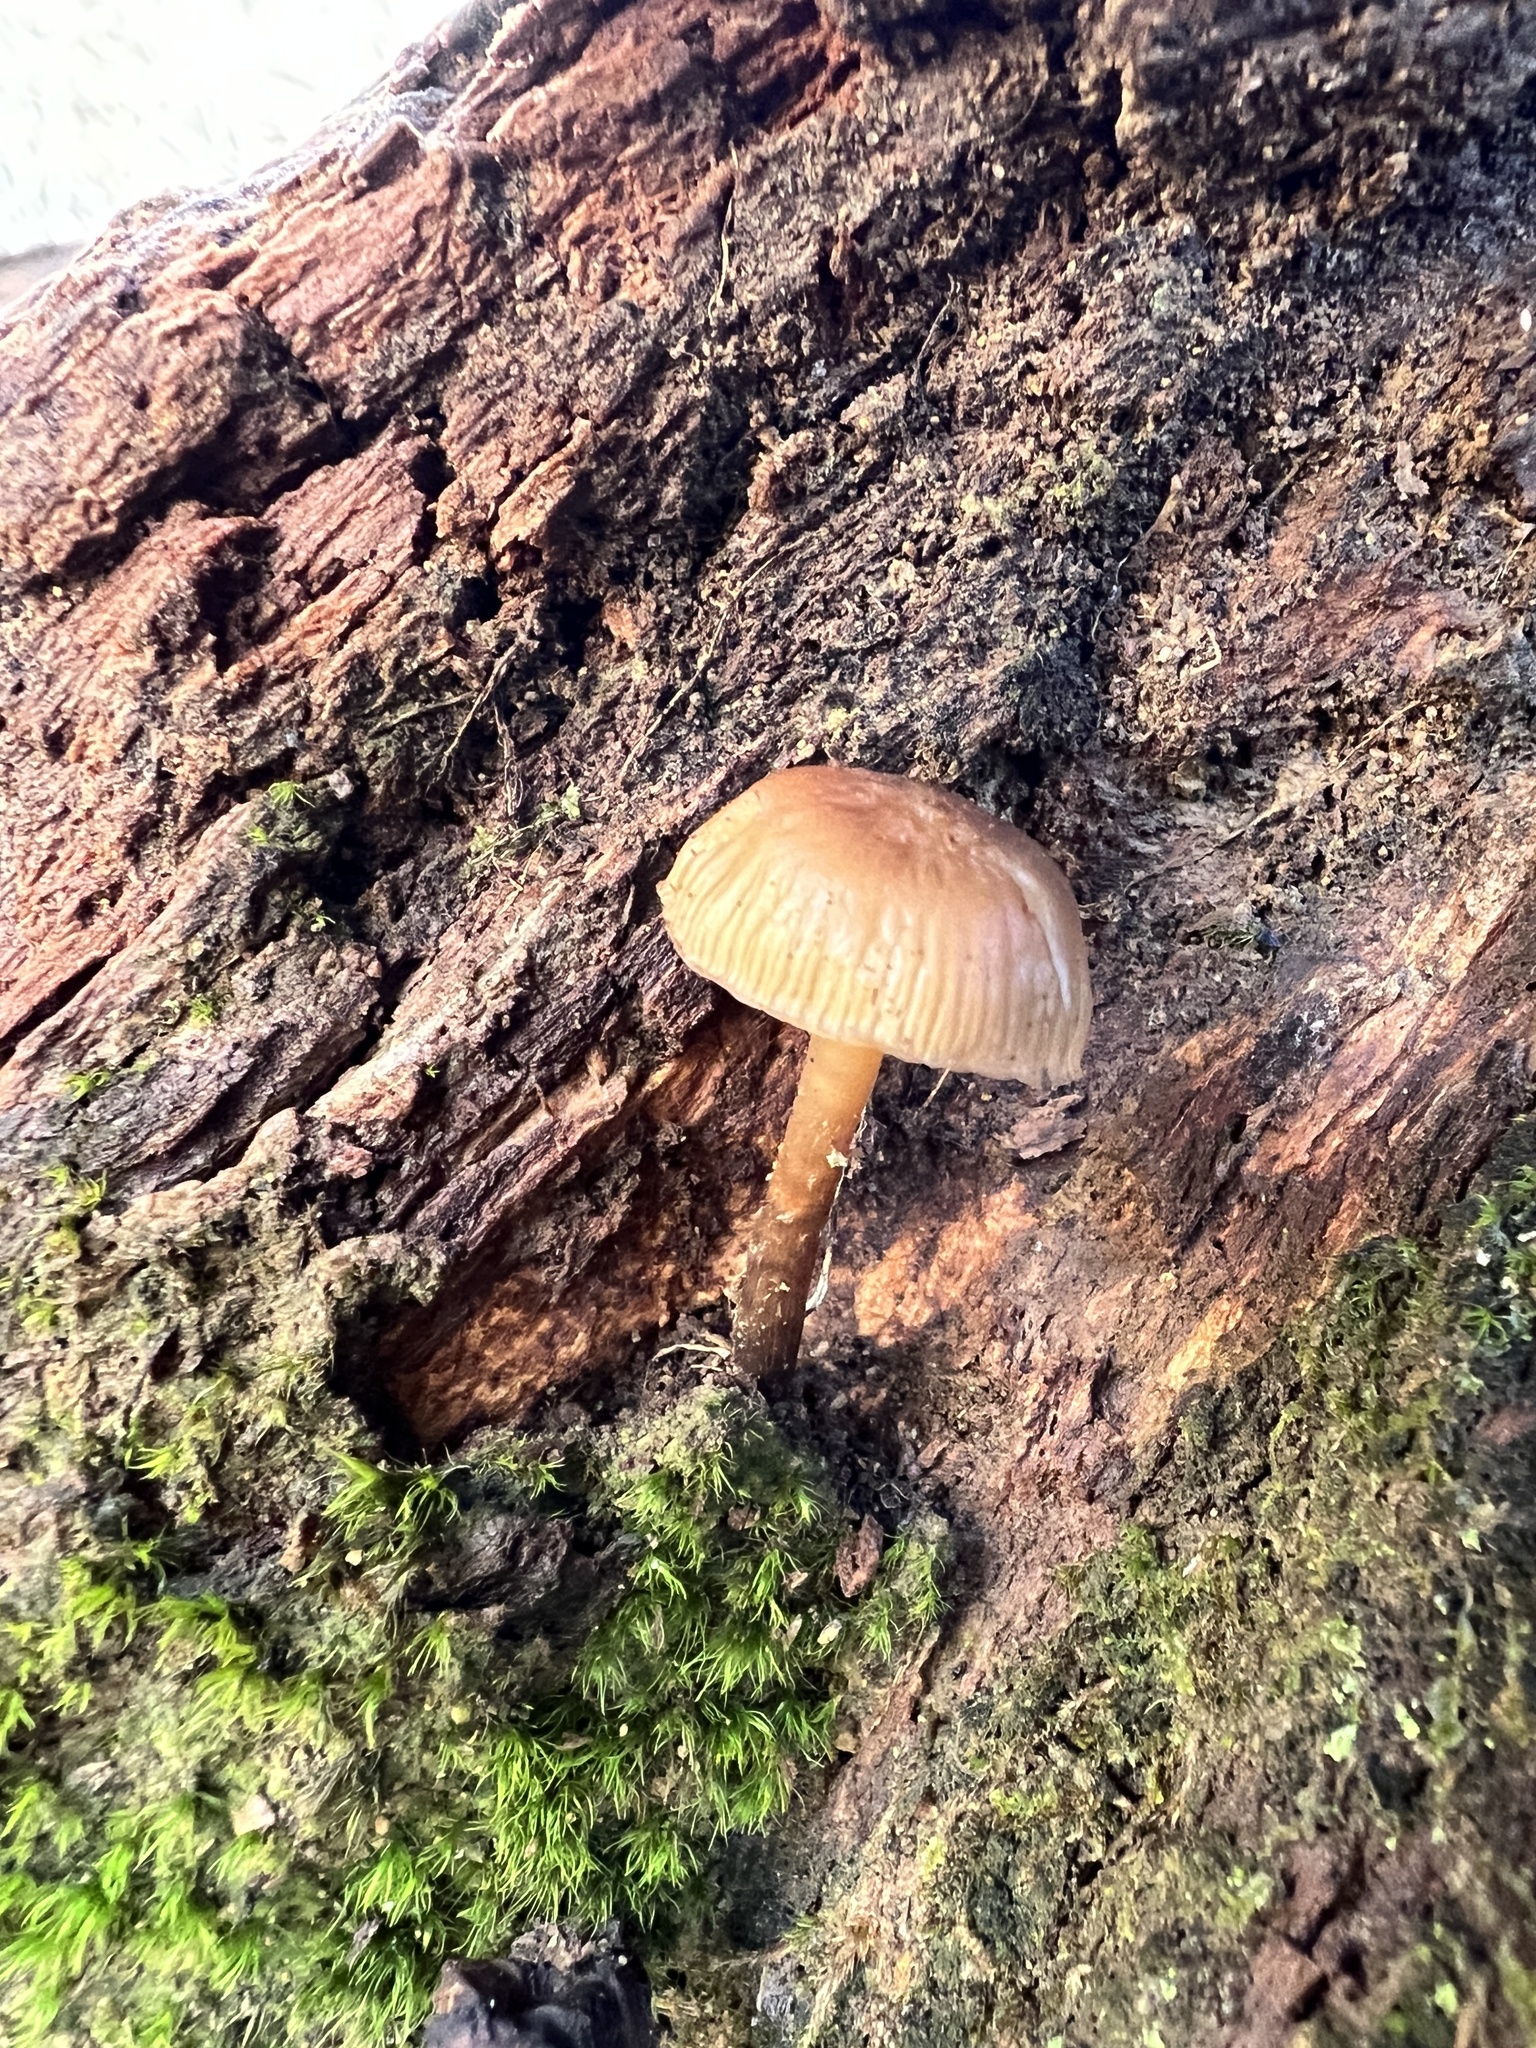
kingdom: Fungi
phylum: Basidiomycota
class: Agaricomycetes
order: Agaricales
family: Mycenaceae
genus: Mycena
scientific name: Mycena galericulata
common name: Bonnet mycena
